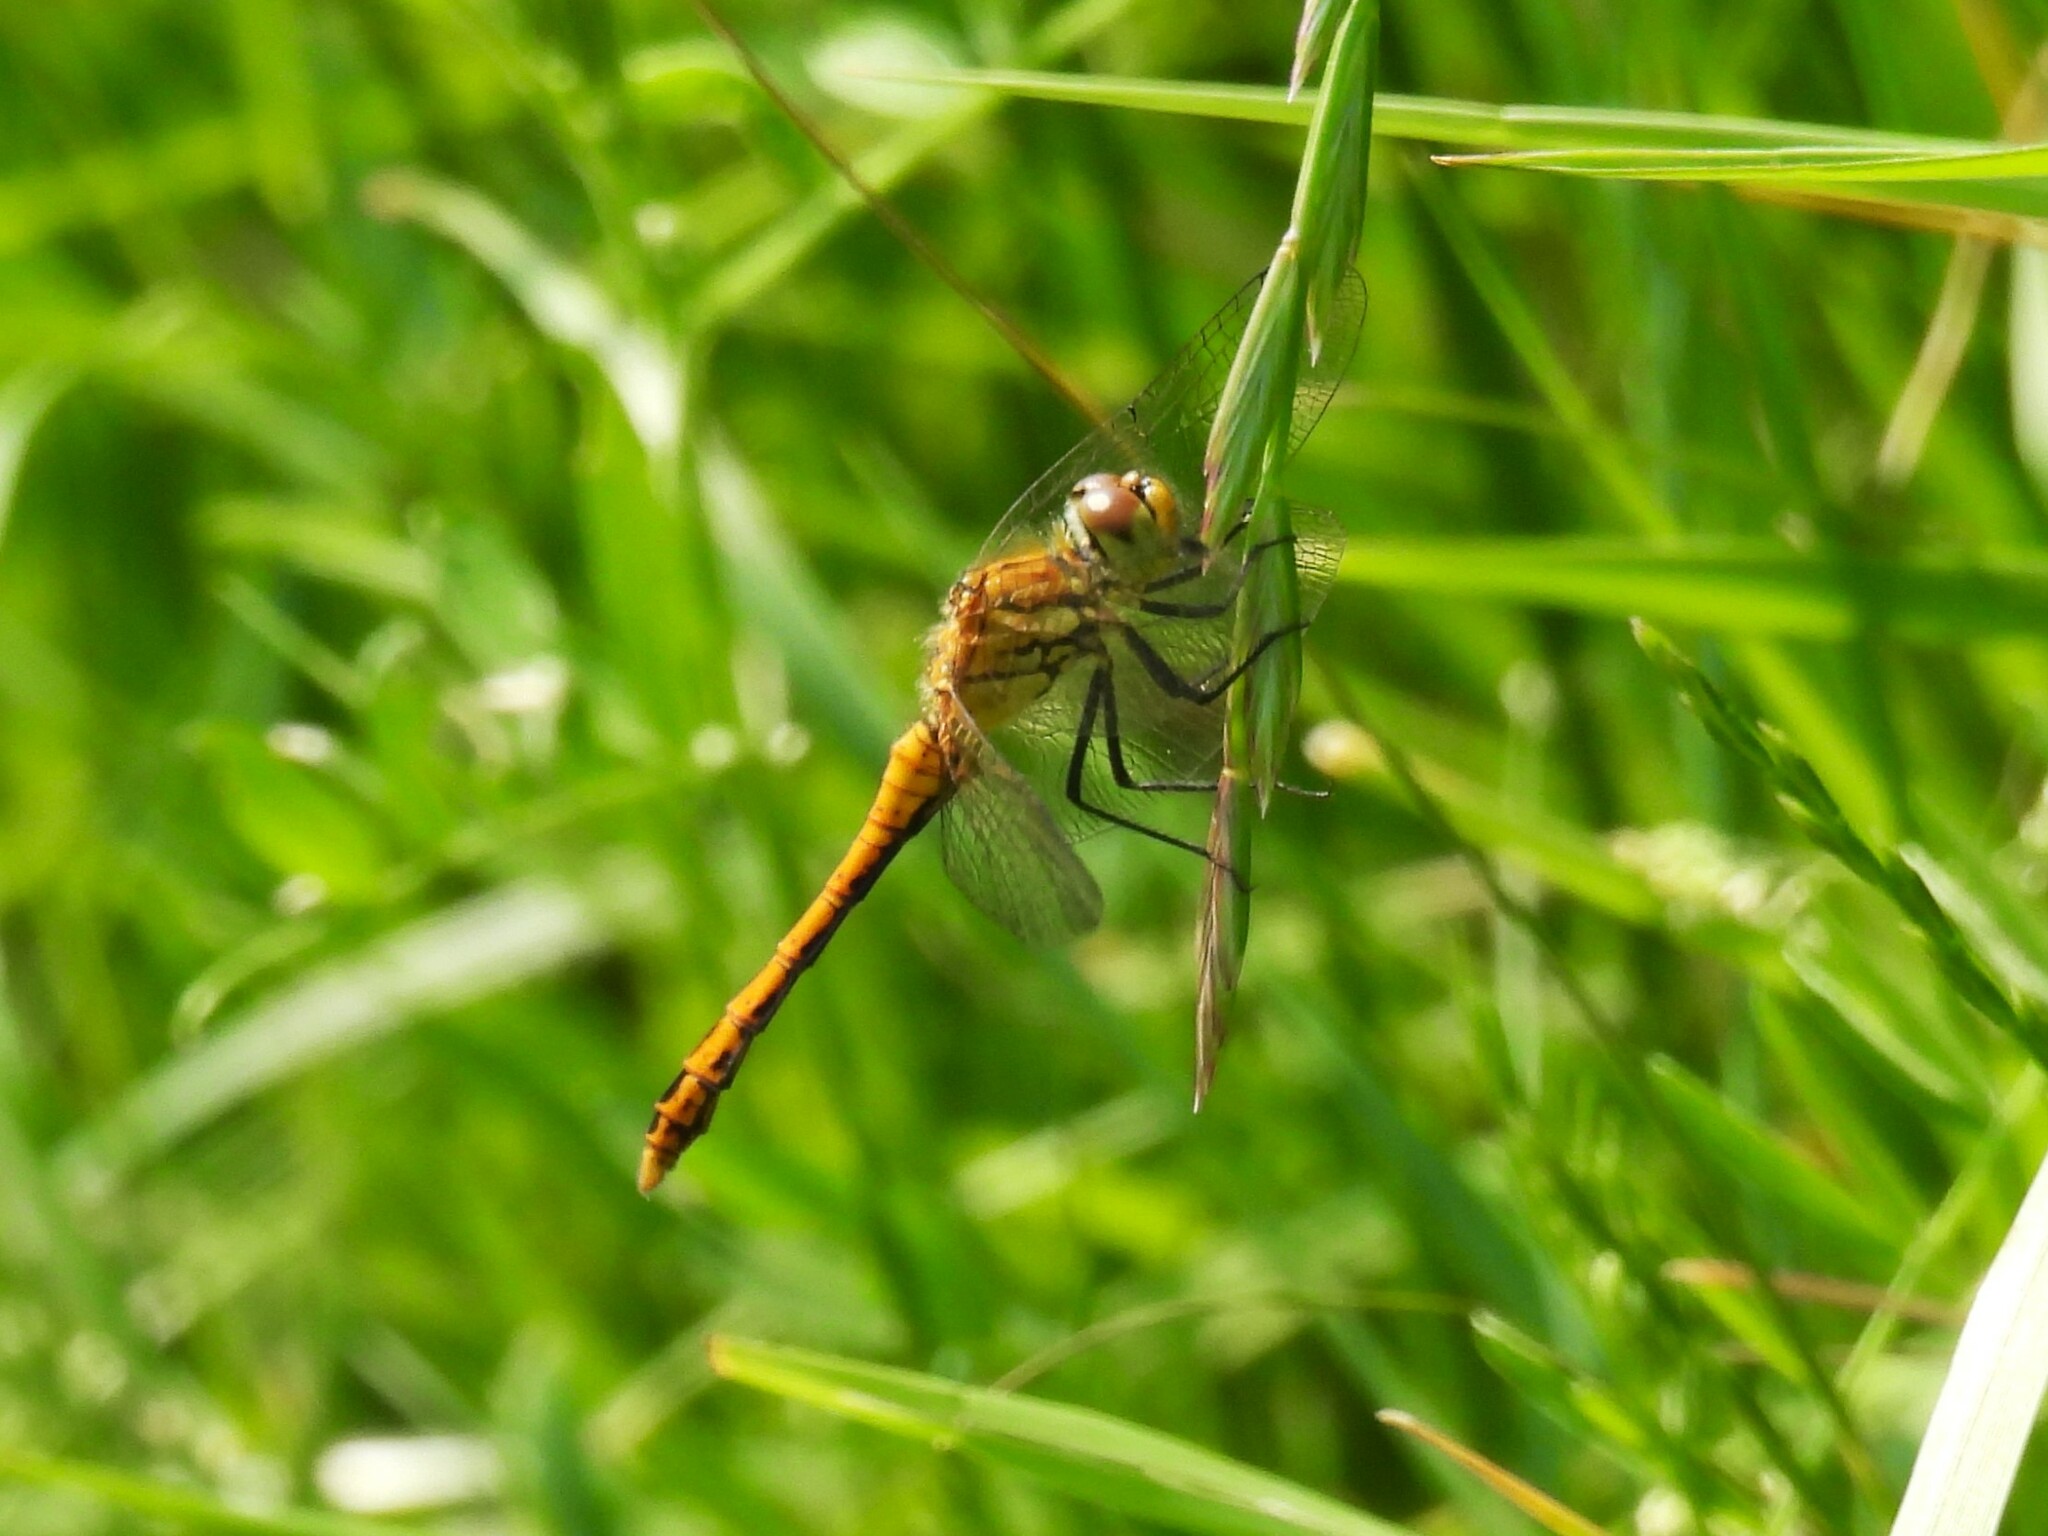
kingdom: Animalia
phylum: Arthropoda
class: Insecta
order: Odonata
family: Libellulidae
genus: Sympetrum
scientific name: Sympetrum sanguineum
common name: Ruddy darter
